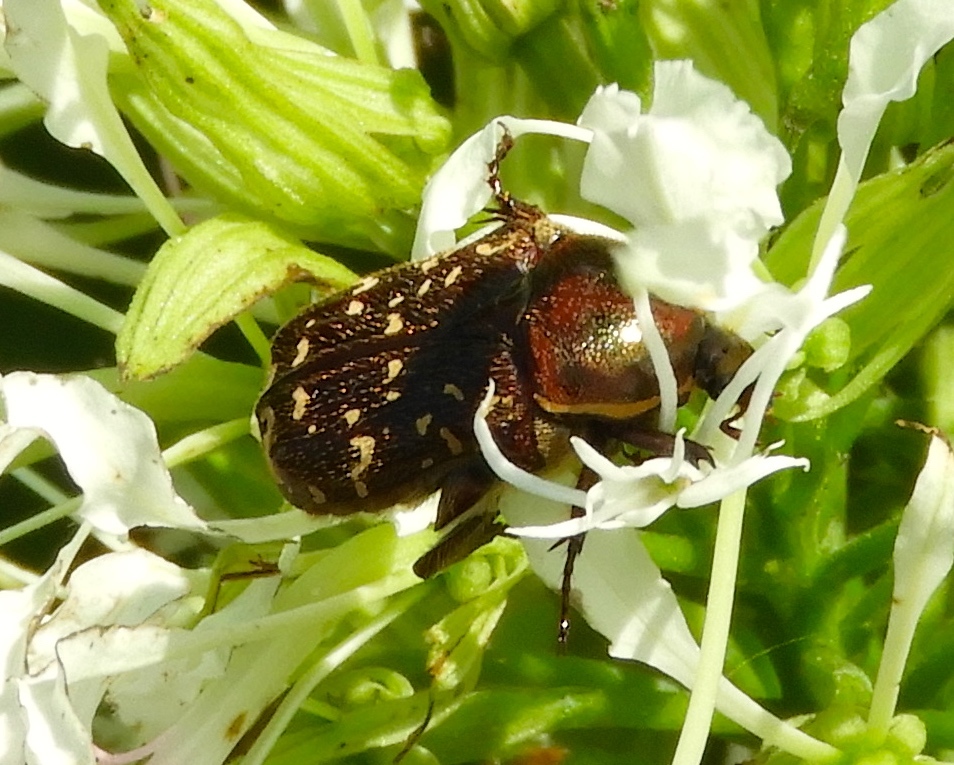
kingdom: Animalia
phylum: Arthropoda
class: Insecta
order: Coleoptera
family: Scarabaeidae
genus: Euphoria
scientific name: Euphoria leucographa
